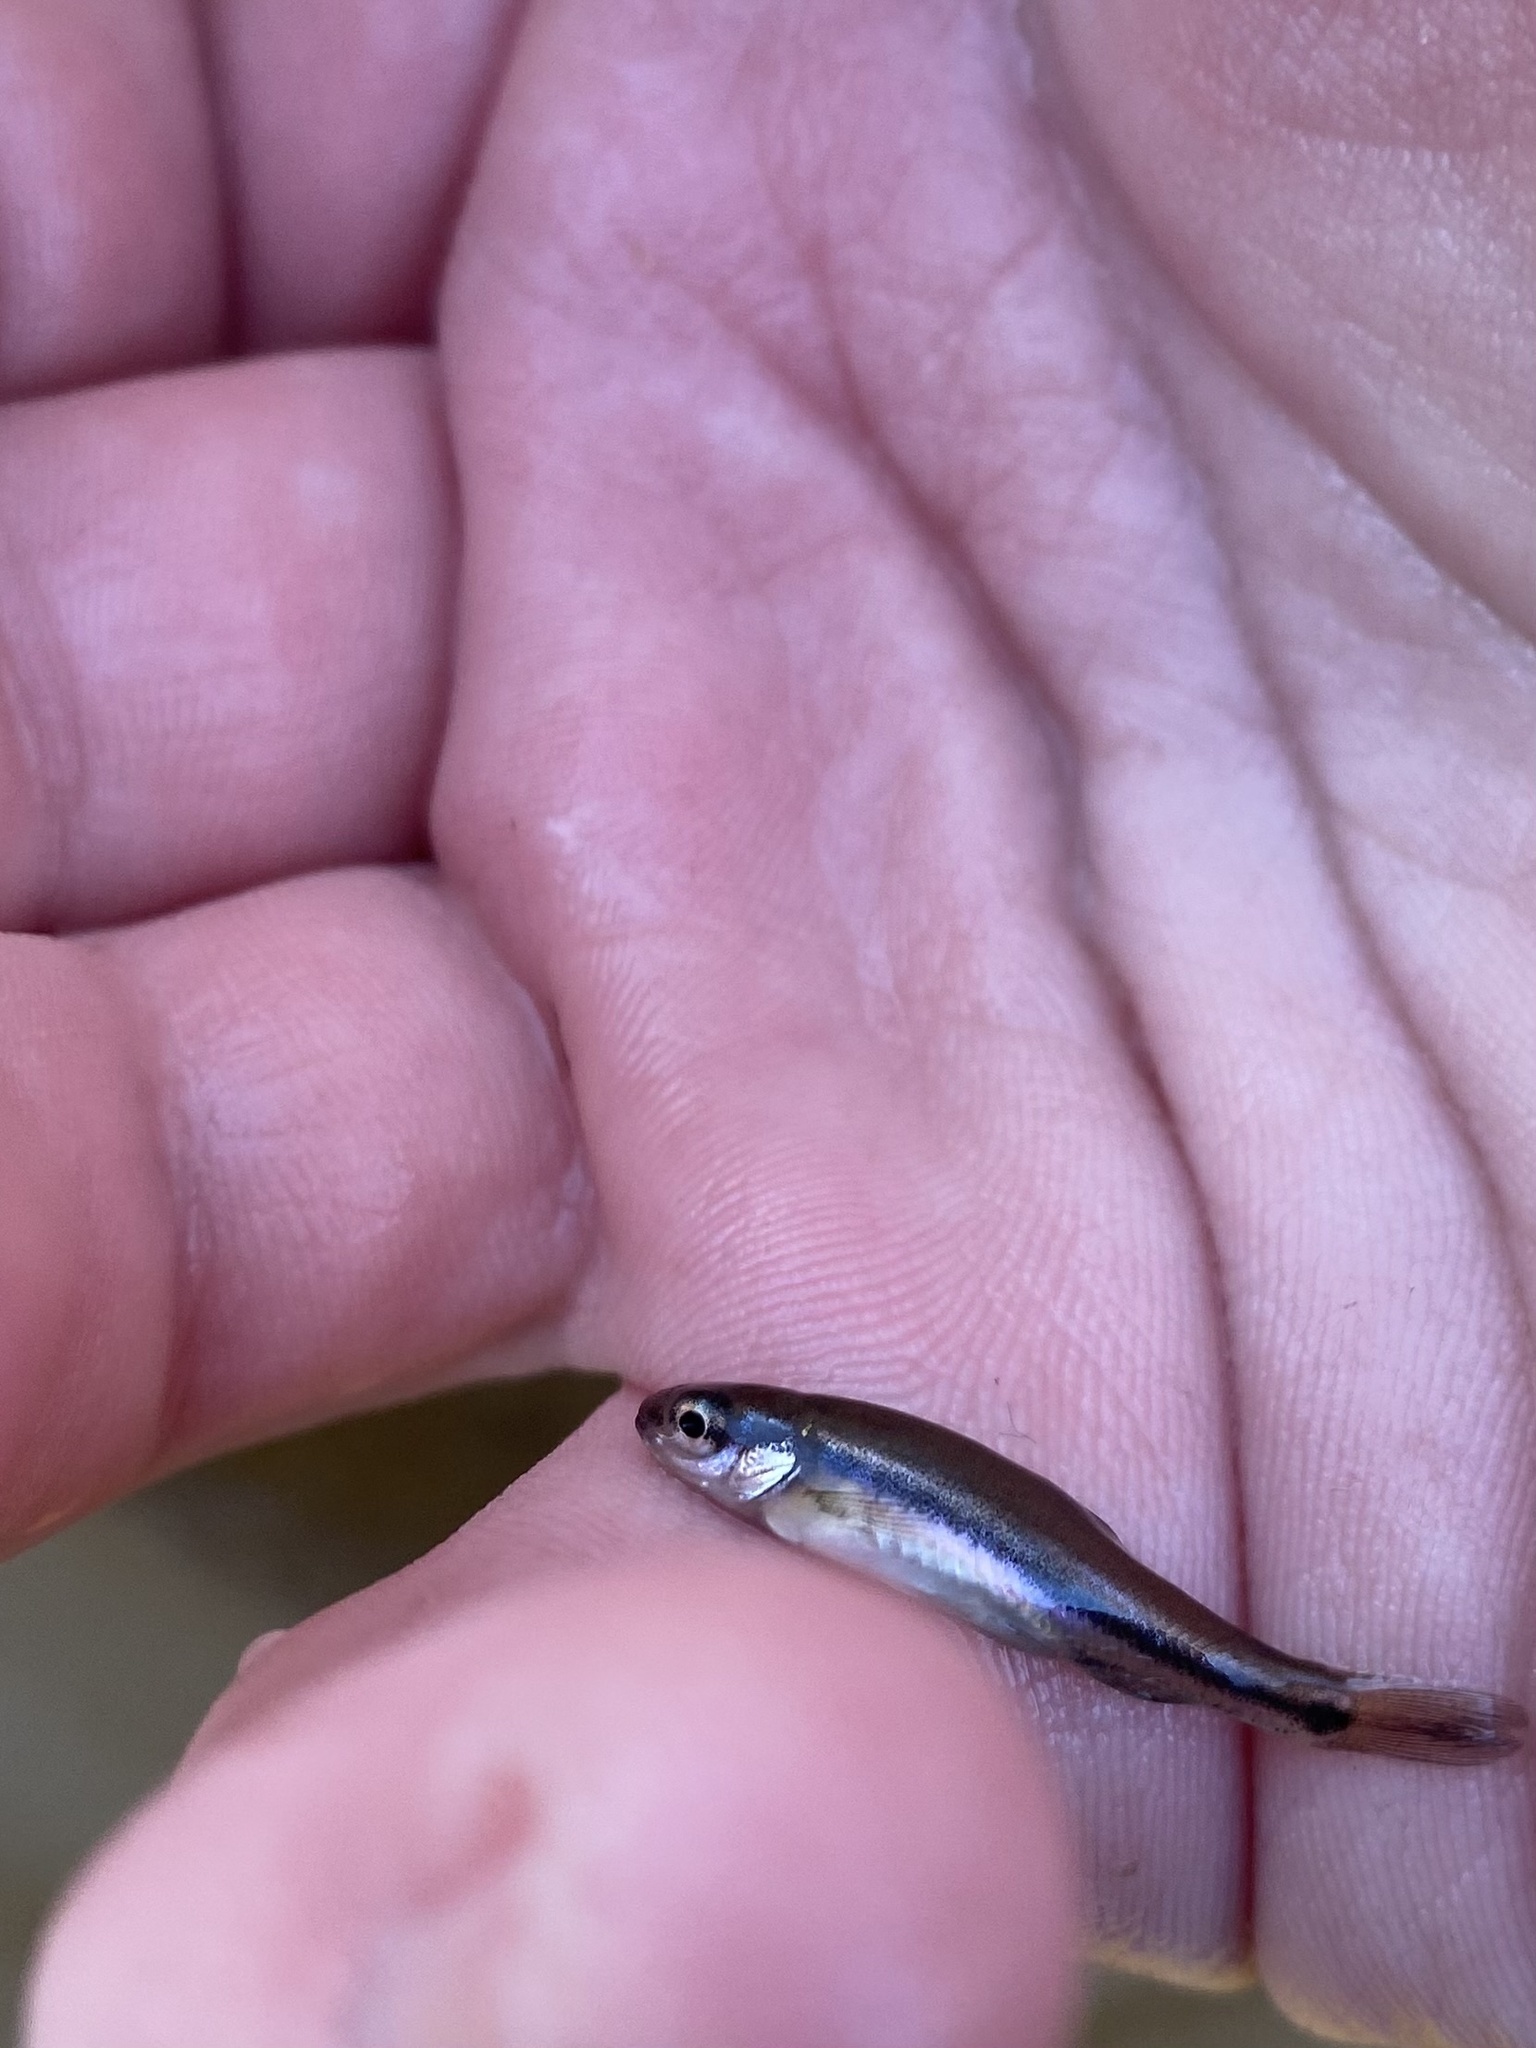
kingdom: Animalia
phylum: Chordata
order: Cypriniformes
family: Cyprinidae
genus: Chrosomus
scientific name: Chrosomus erythrogaster
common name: Southern redbelly dace
